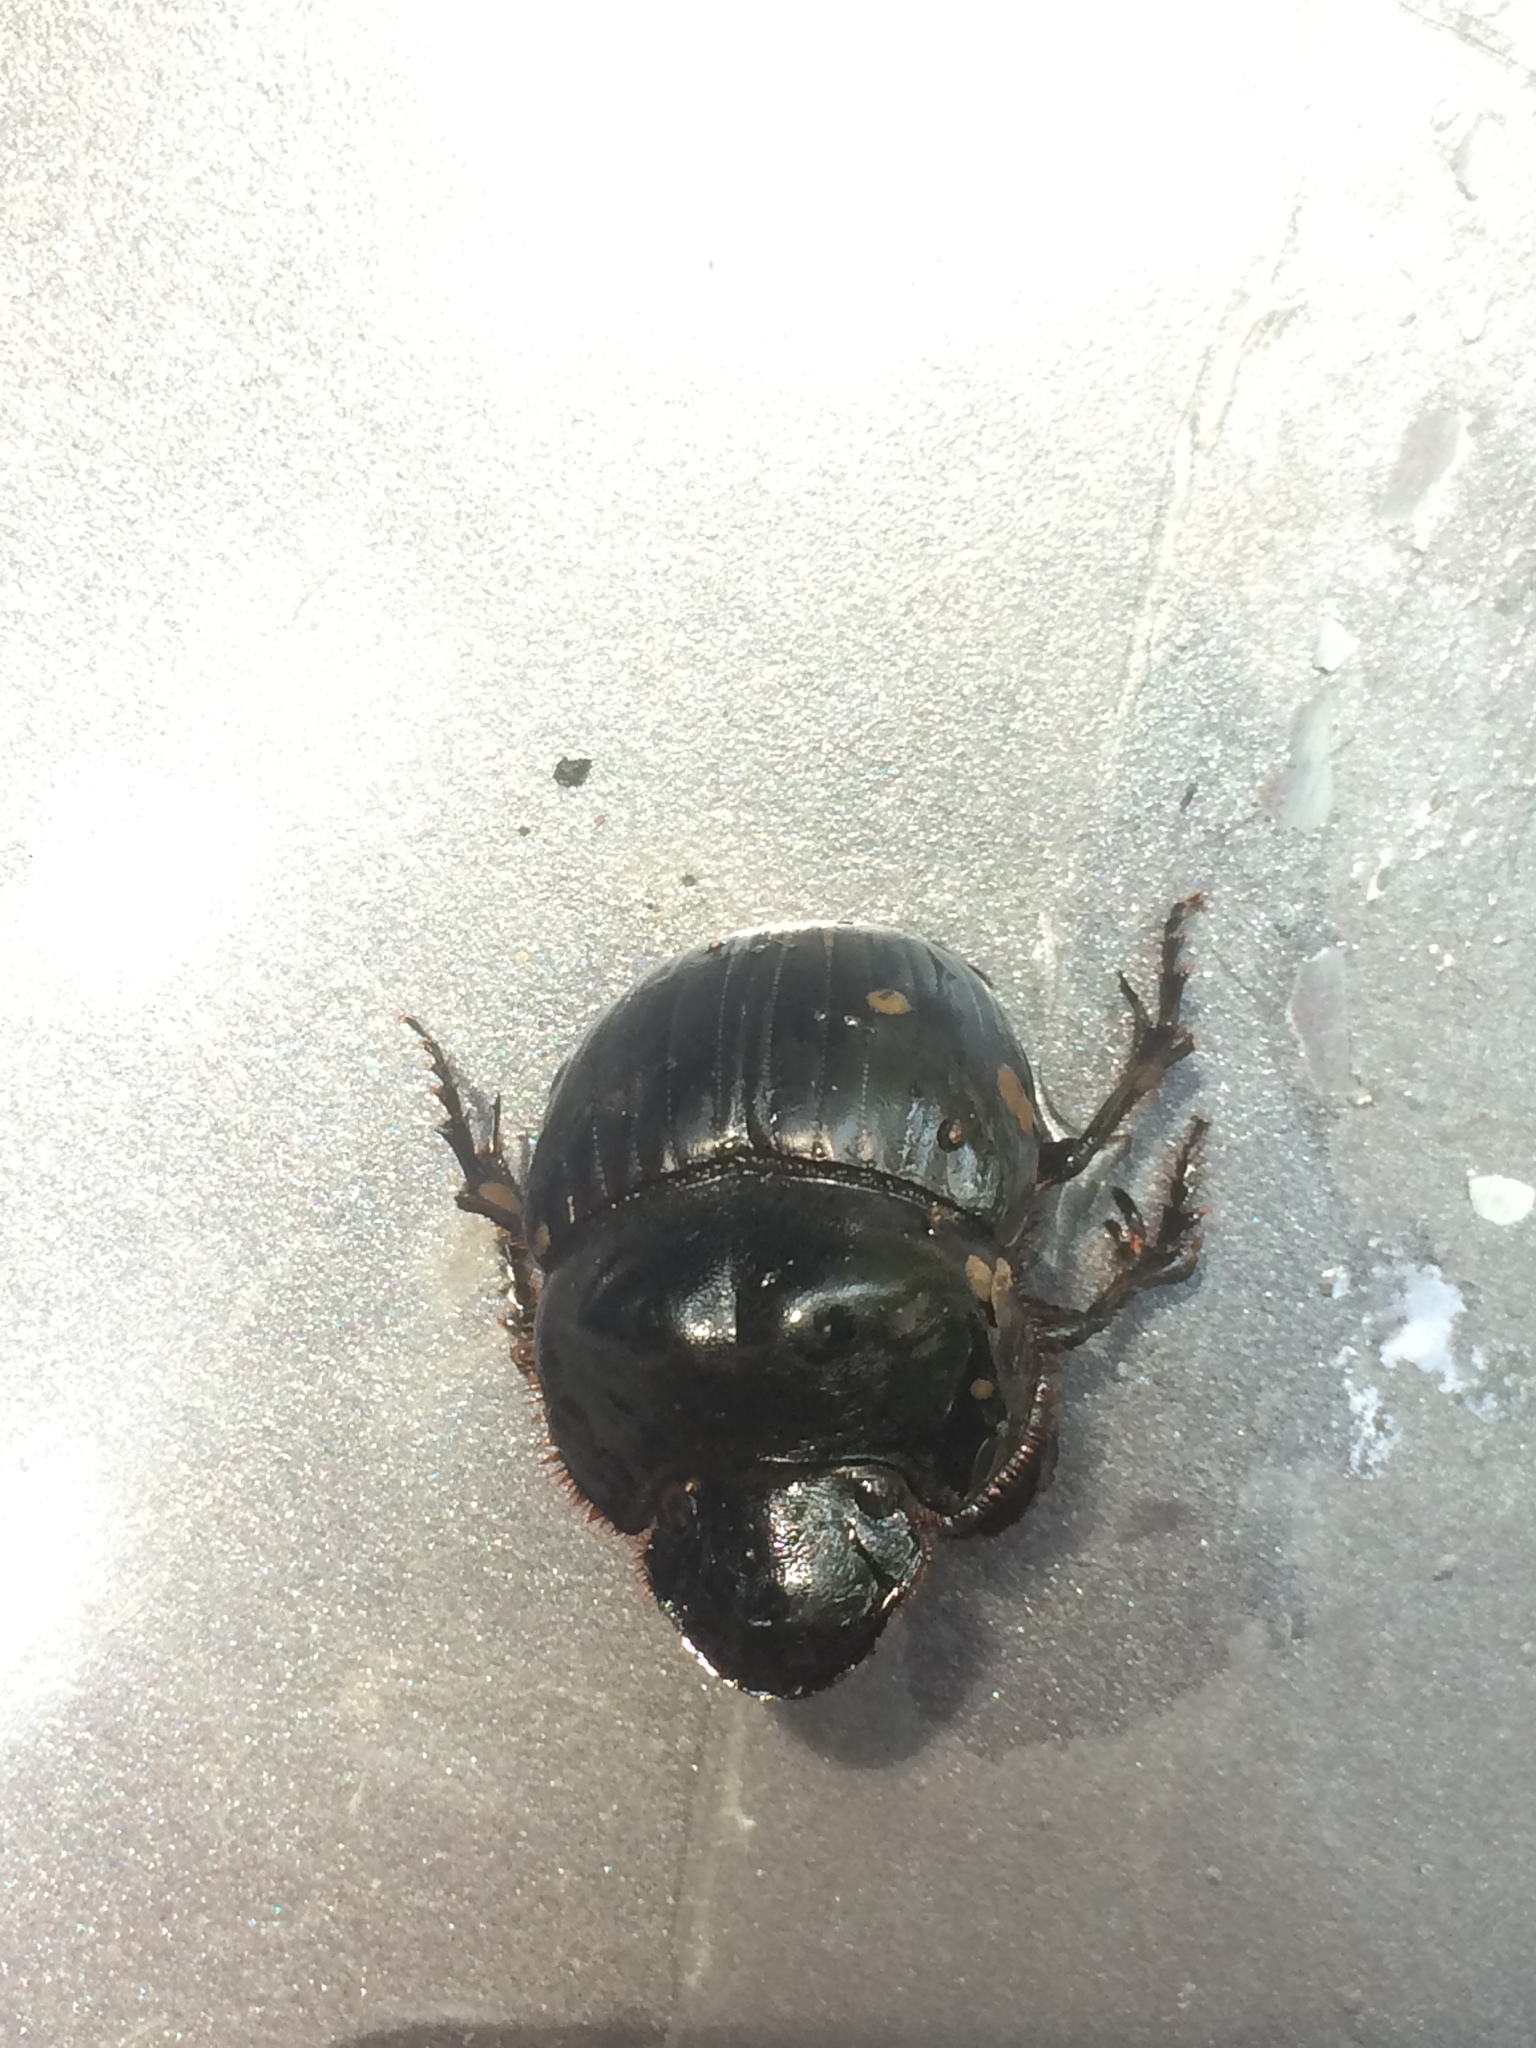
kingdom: Animalia
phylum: Arthropoda
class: Insecta
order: Coleoptera
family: Scarabaeidae
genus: Dichotomius
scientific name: Dichotomius carolinus
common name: Carolina copris
